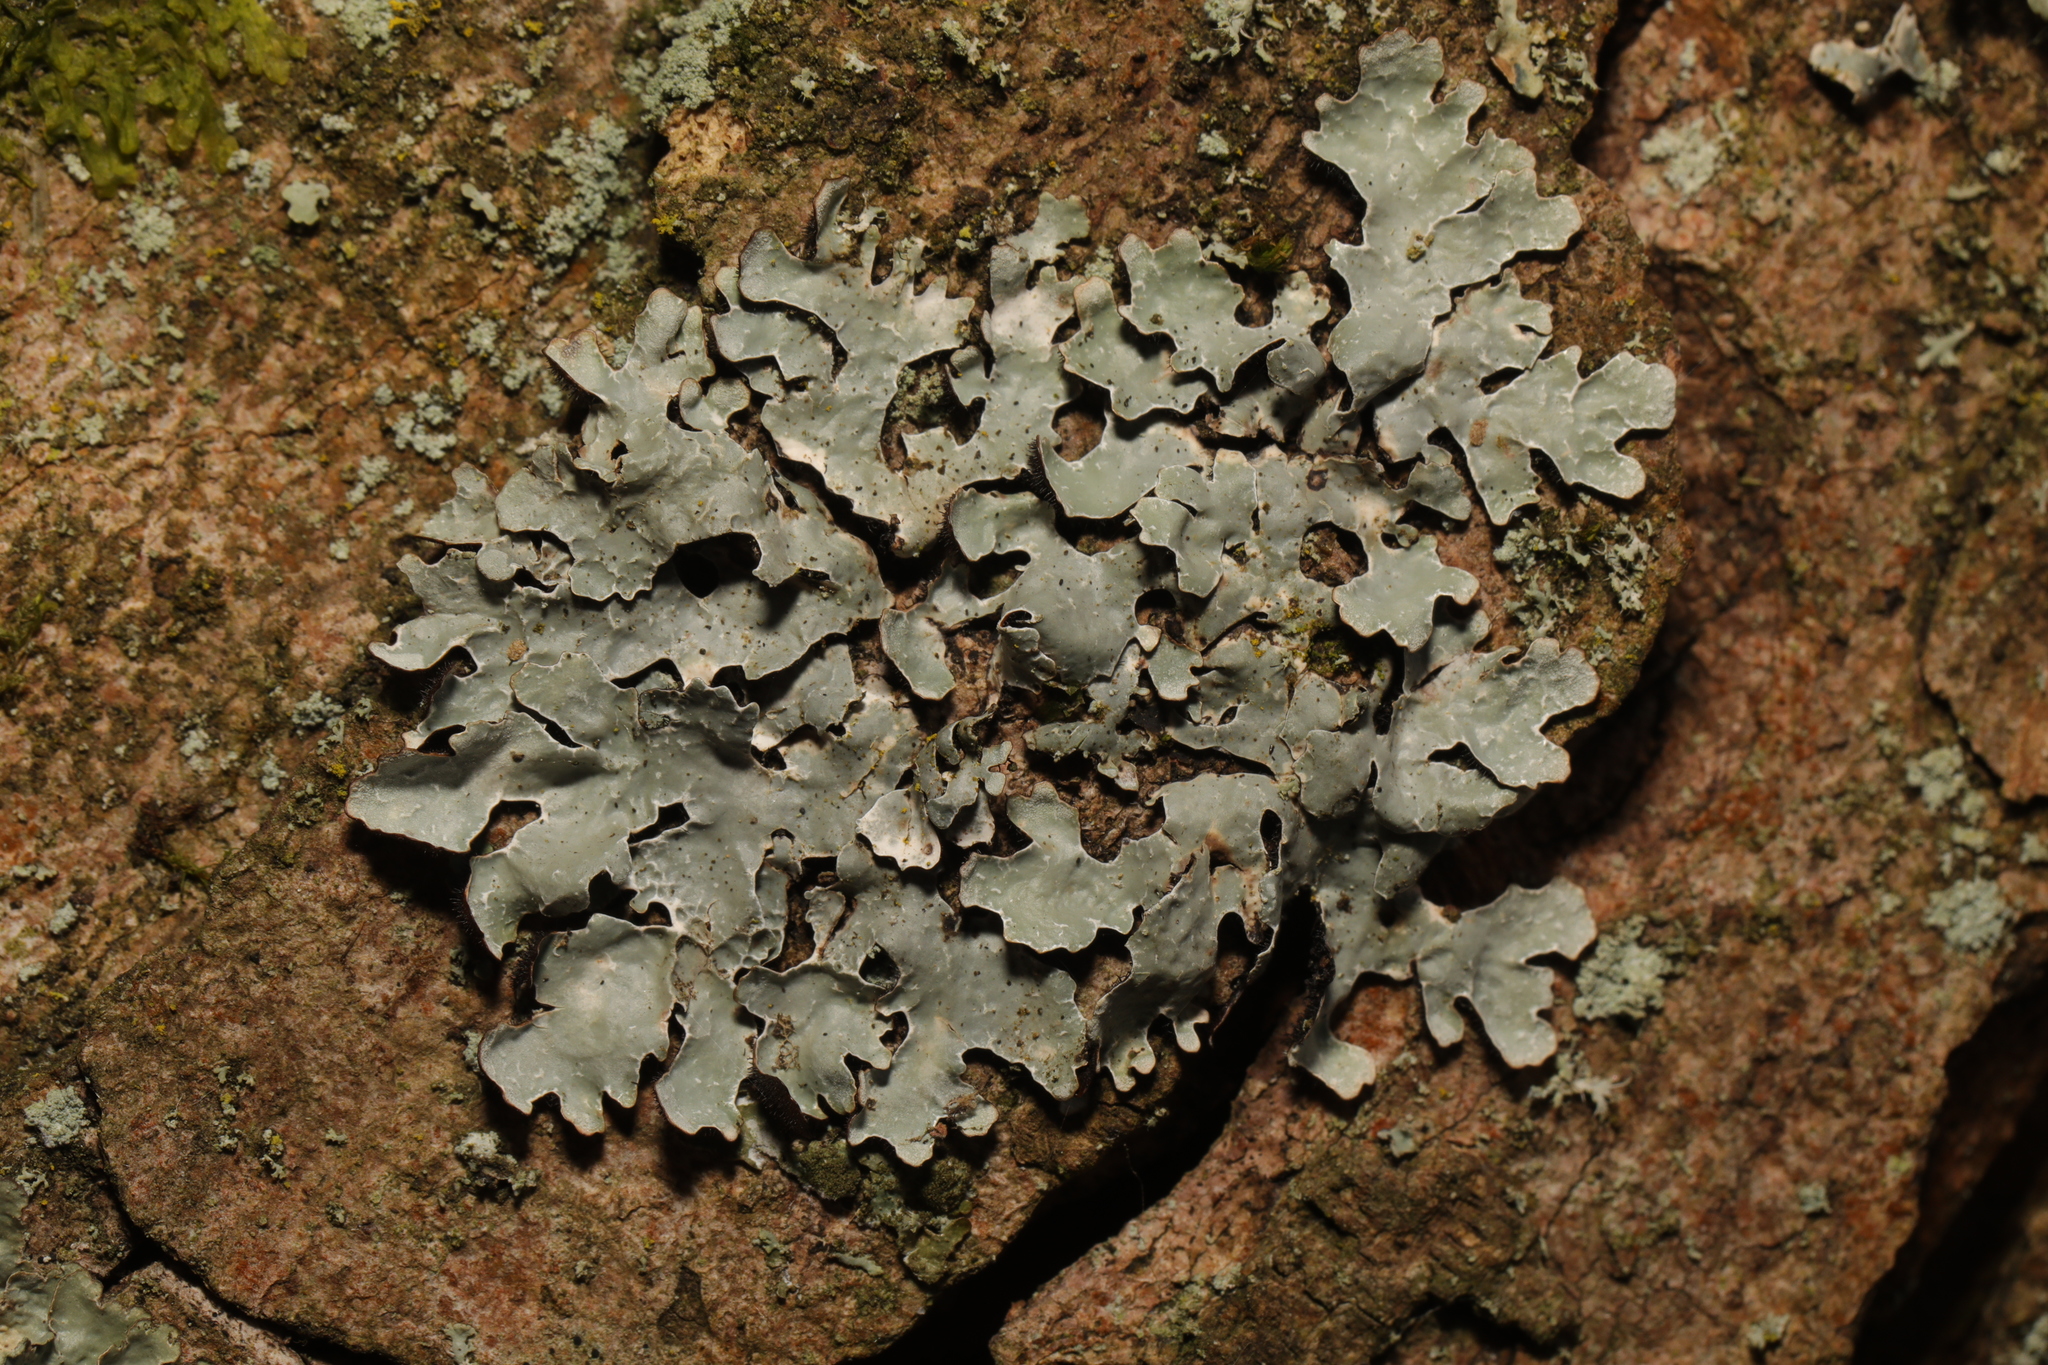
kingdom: Fungi
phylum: Ascomycota
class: Lecanoromycetes
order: Lecanorales
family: Parmeliaceae
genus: Parmelia
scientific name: Parmelia sulcata
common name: Netted shield lichen
